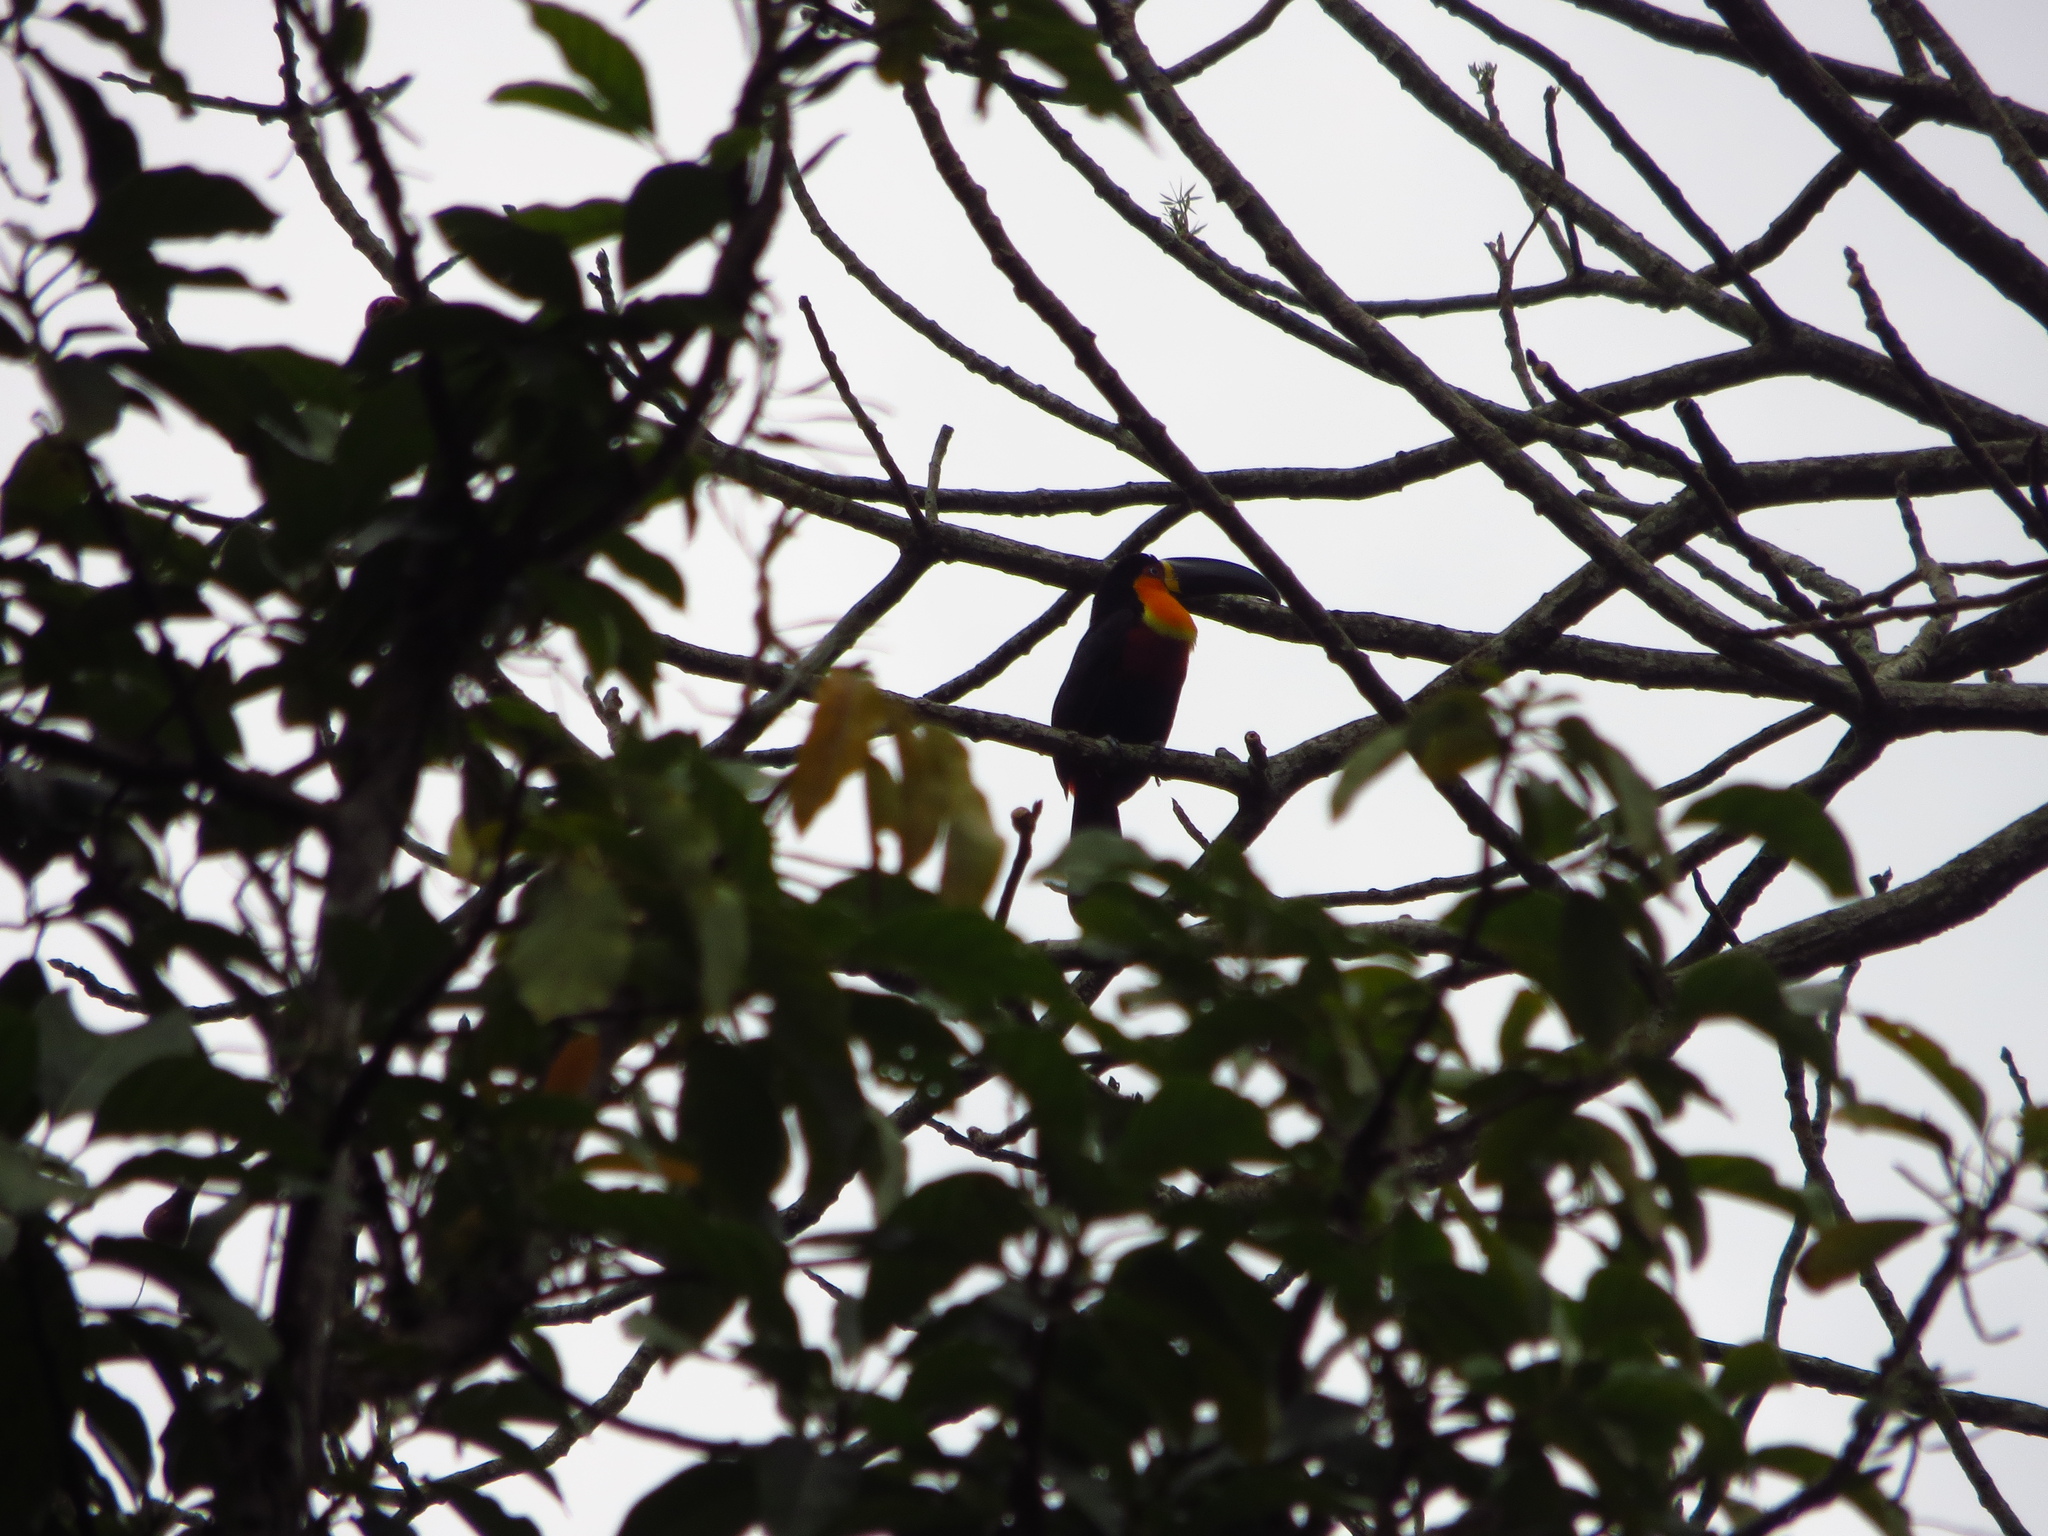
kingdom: Animalia
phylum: Chordata
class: Aves
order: Piciformes
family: Ramphastidae
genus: Ramphastos
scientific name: Ramphastos vitellinus
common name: Channel-billed toucan
